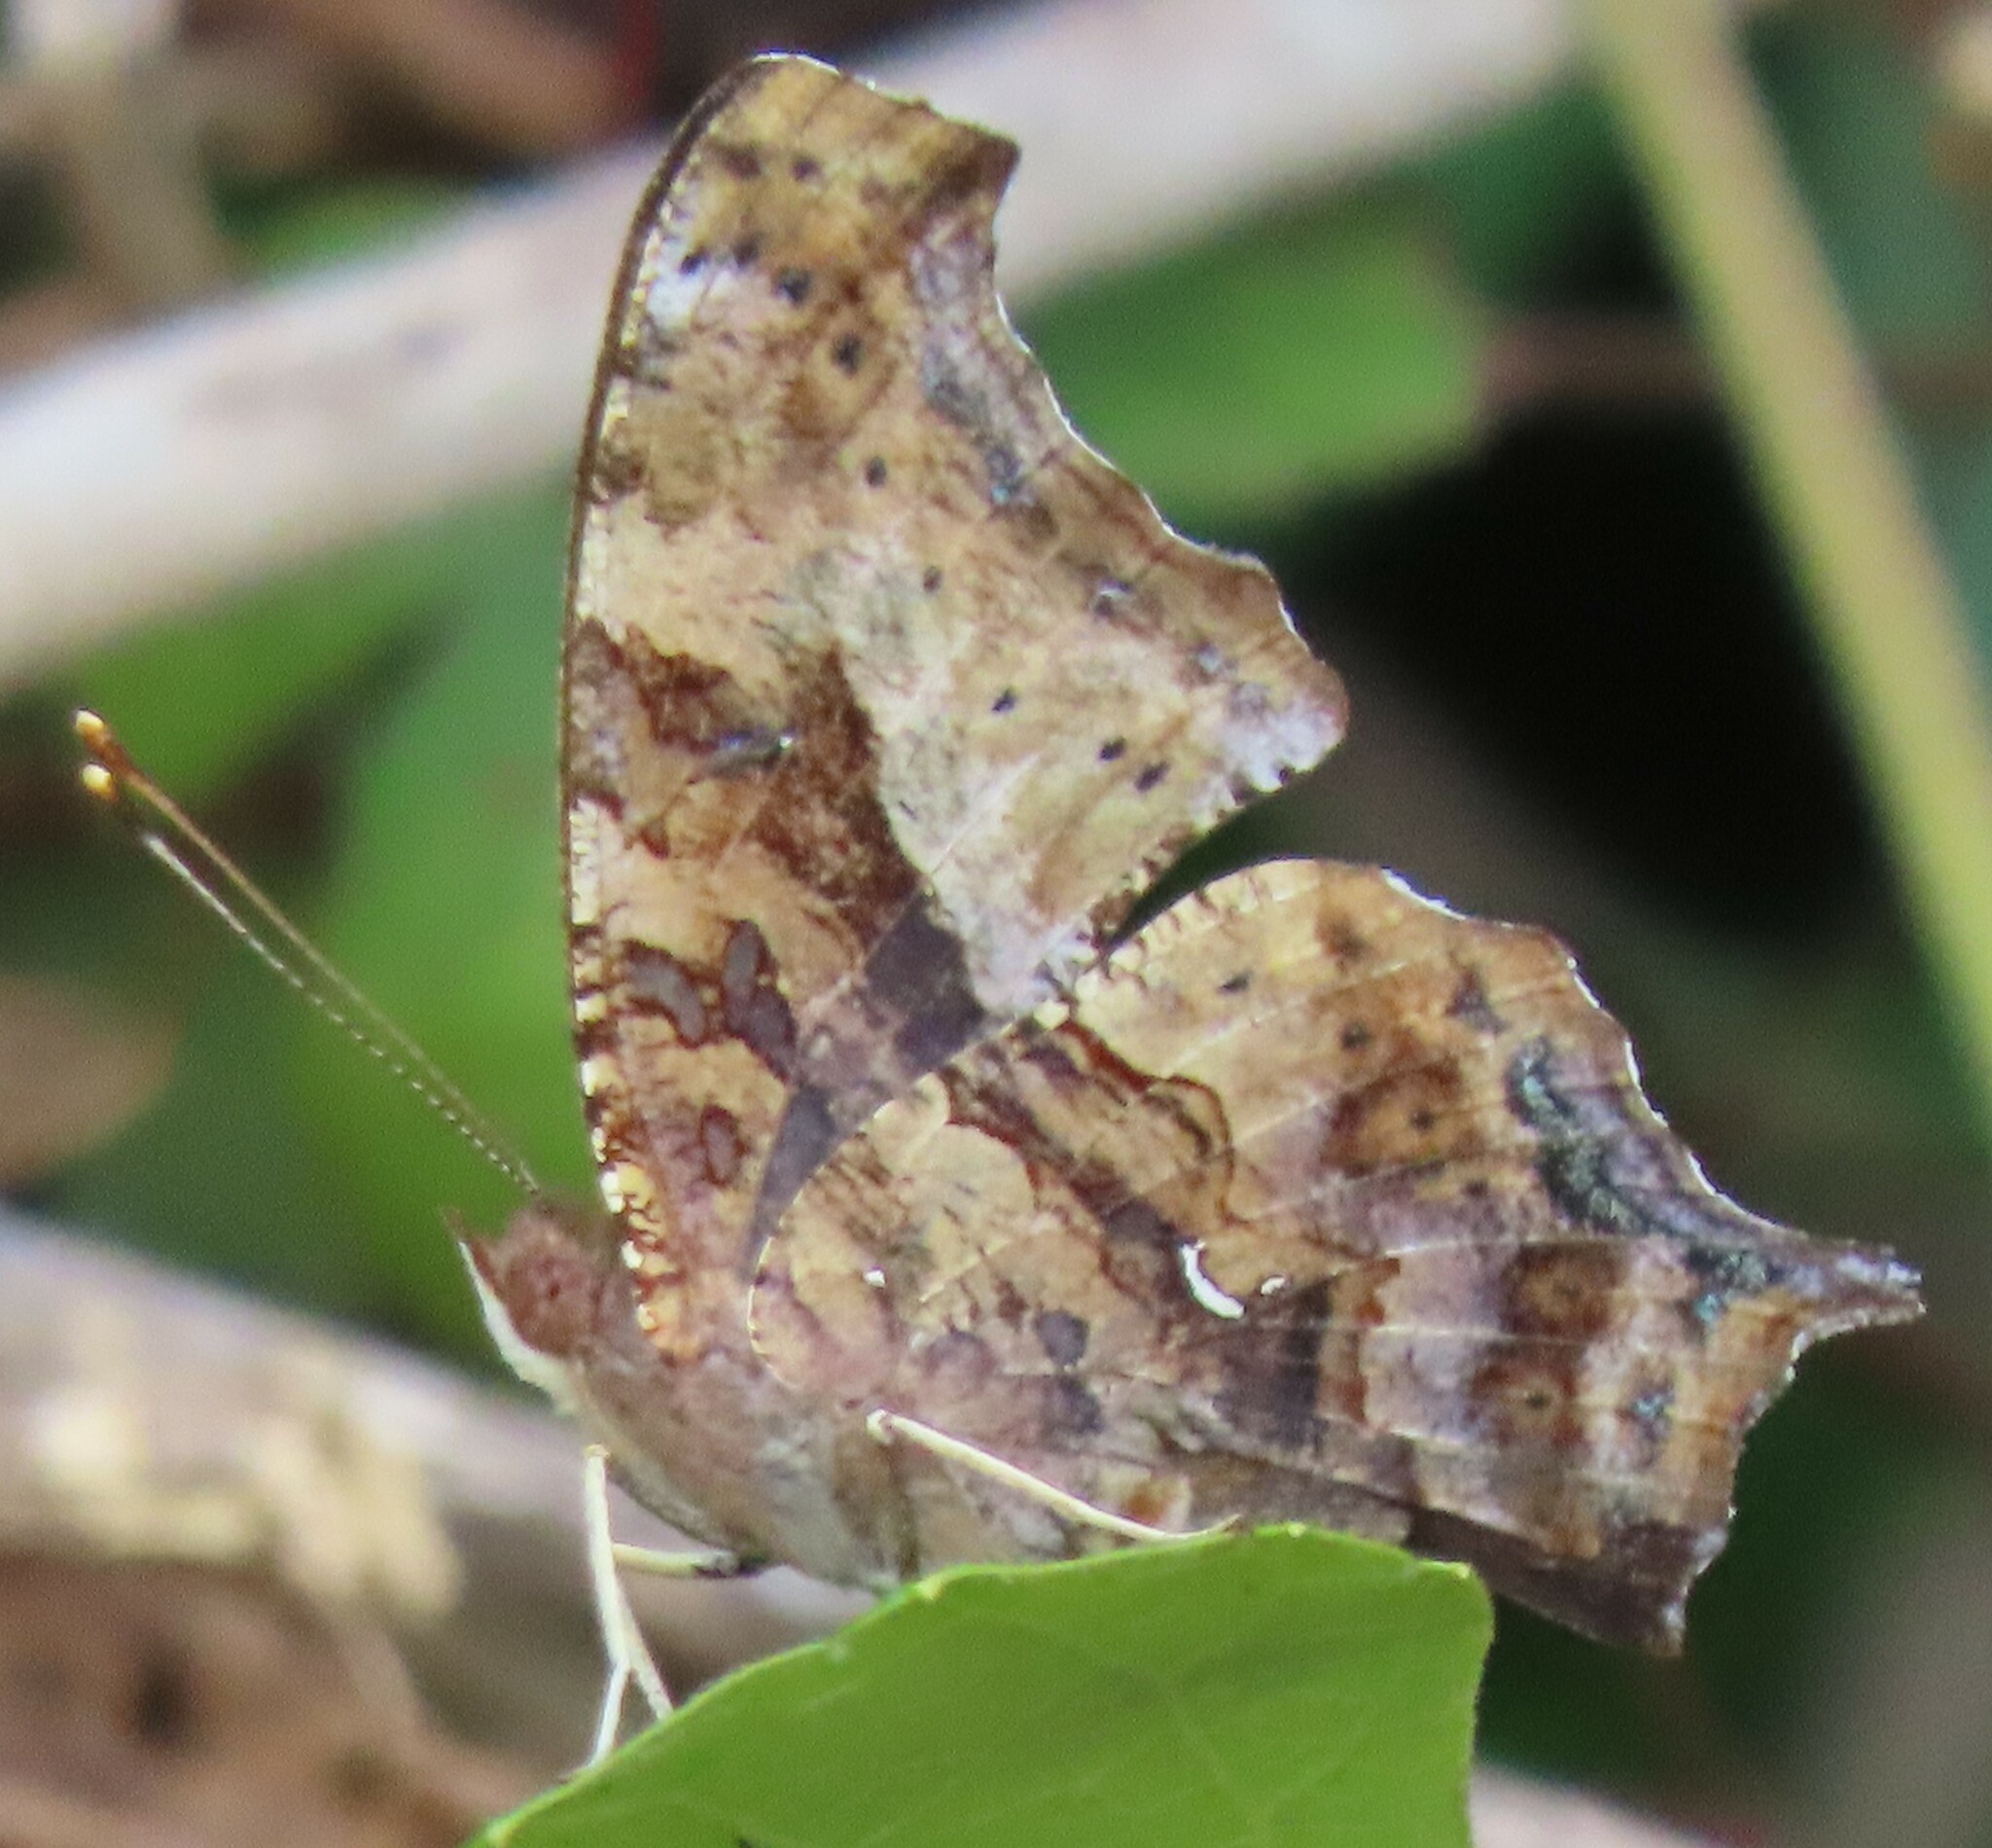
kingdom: Animalia
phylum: Arthropoda
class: Insecta
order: Lepidoptera
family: Nymphalidae
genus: Polygonia
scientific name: Polygonia interrogationis
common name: Question mark
